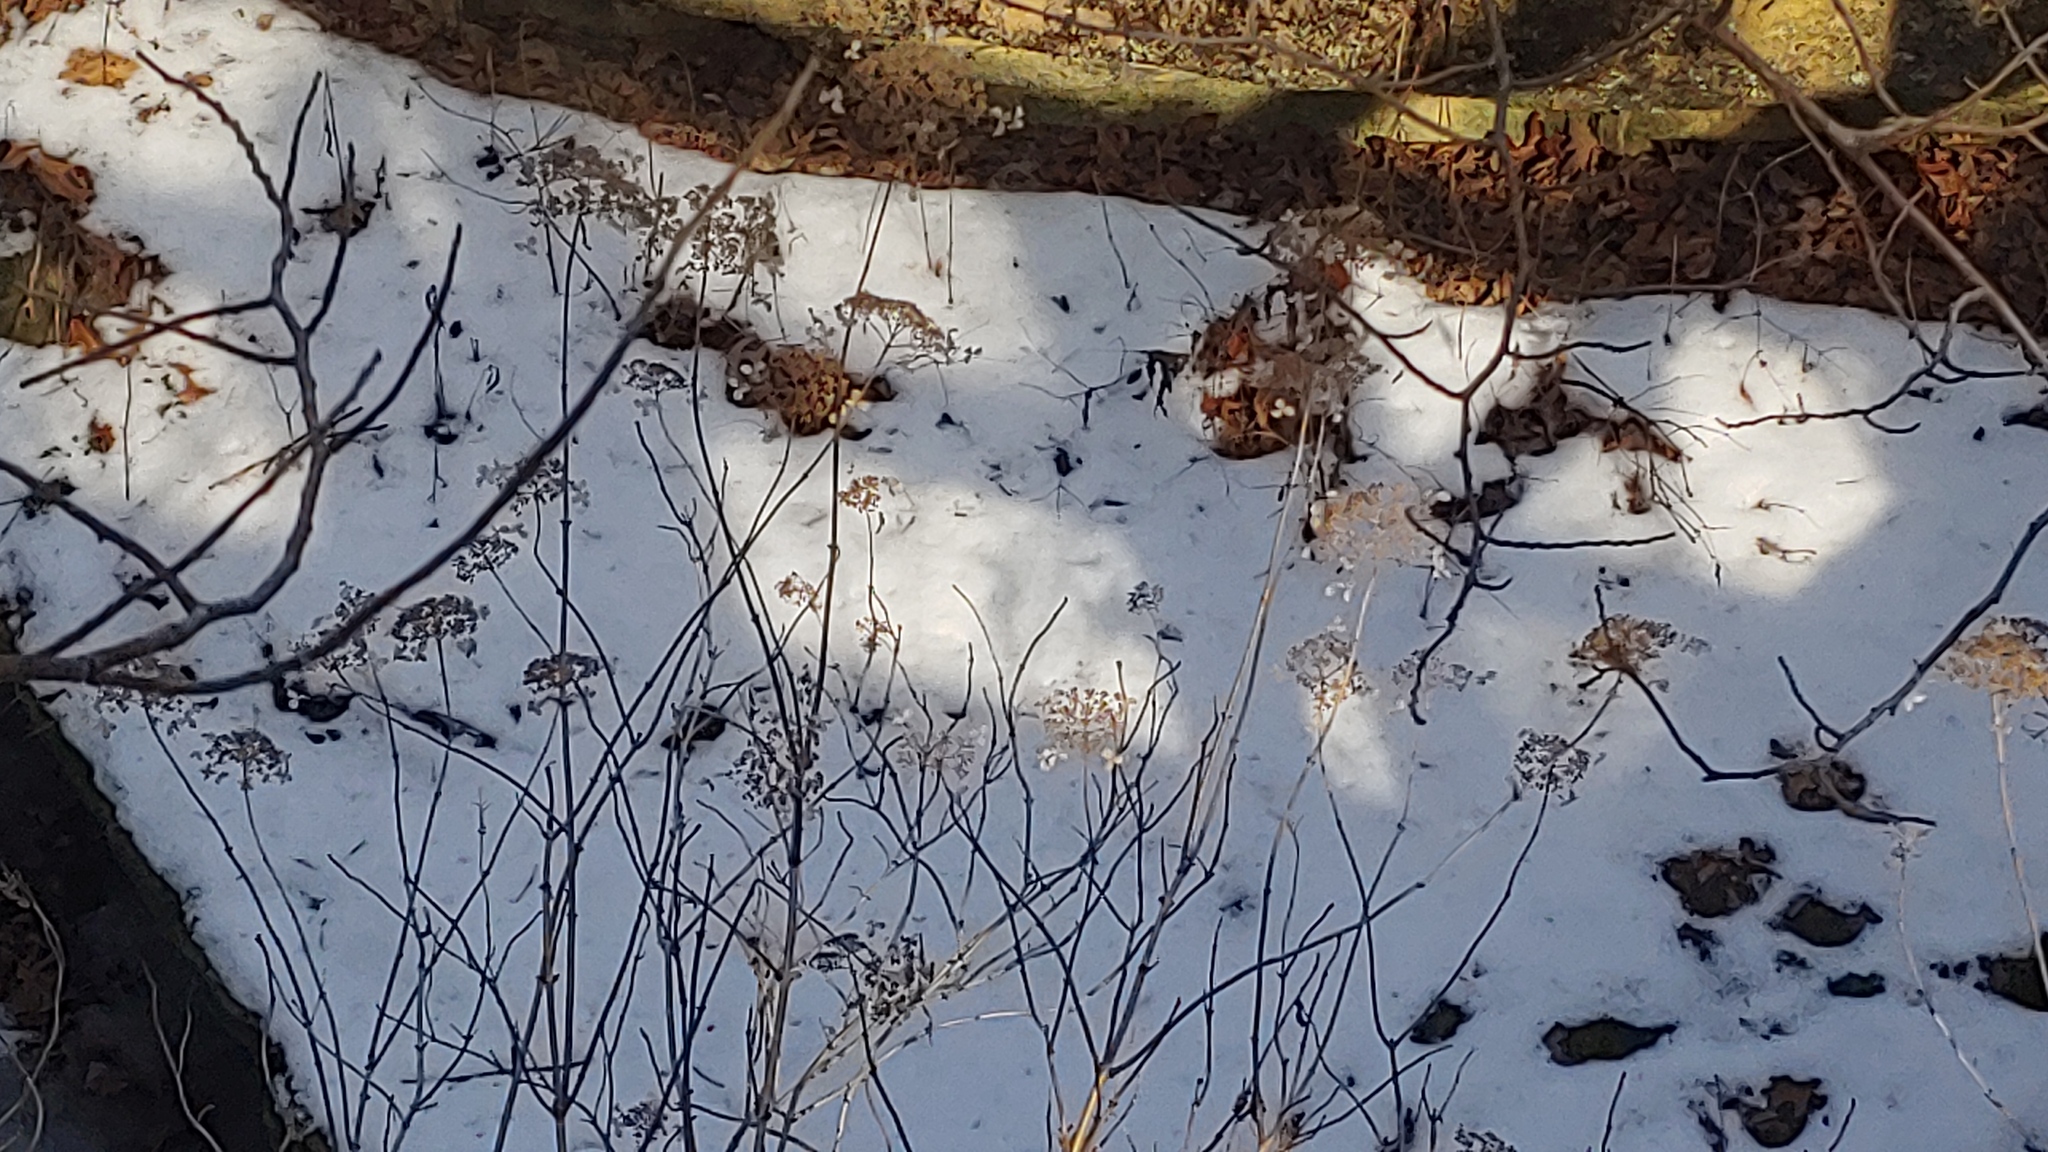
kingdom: Plantae
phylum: Tracheophyta
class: Magnoliopsida
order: Cornales
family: Hydrangeaceae
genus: Hydrangea
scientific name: Hydrangea arborescens
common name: Sevenbark
